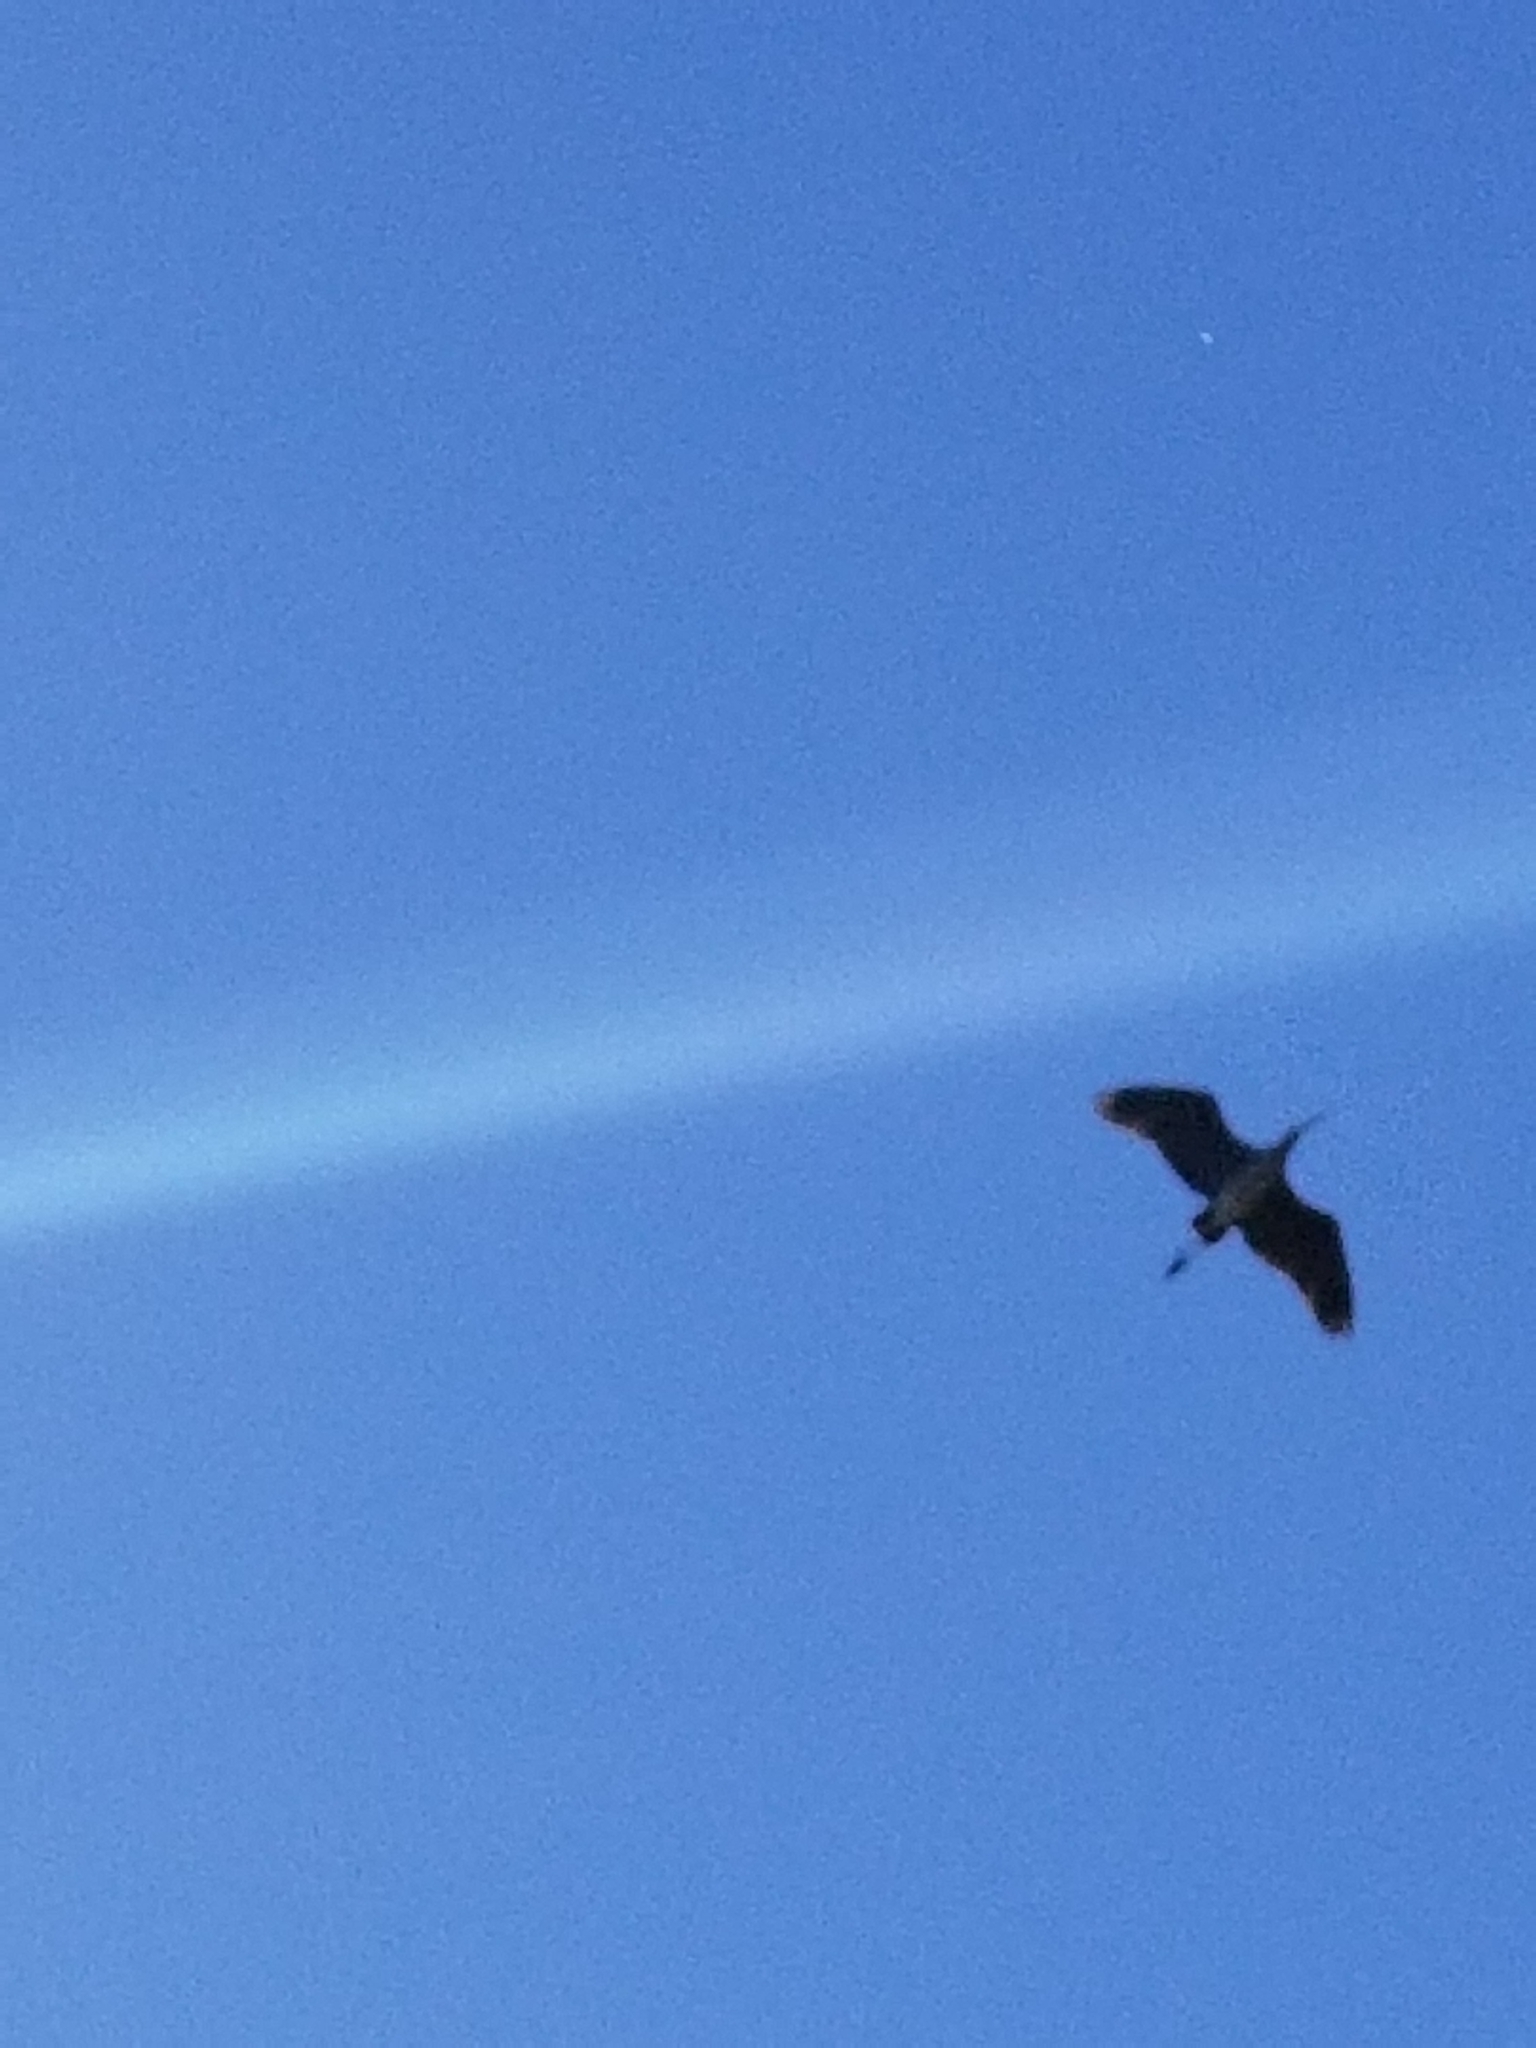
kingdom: Animalia
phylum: Chordata
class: Aves
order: Pelecaniformes
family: Ardeidae
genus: Ardea
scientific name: Ardea herodias
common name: Great blue heron
